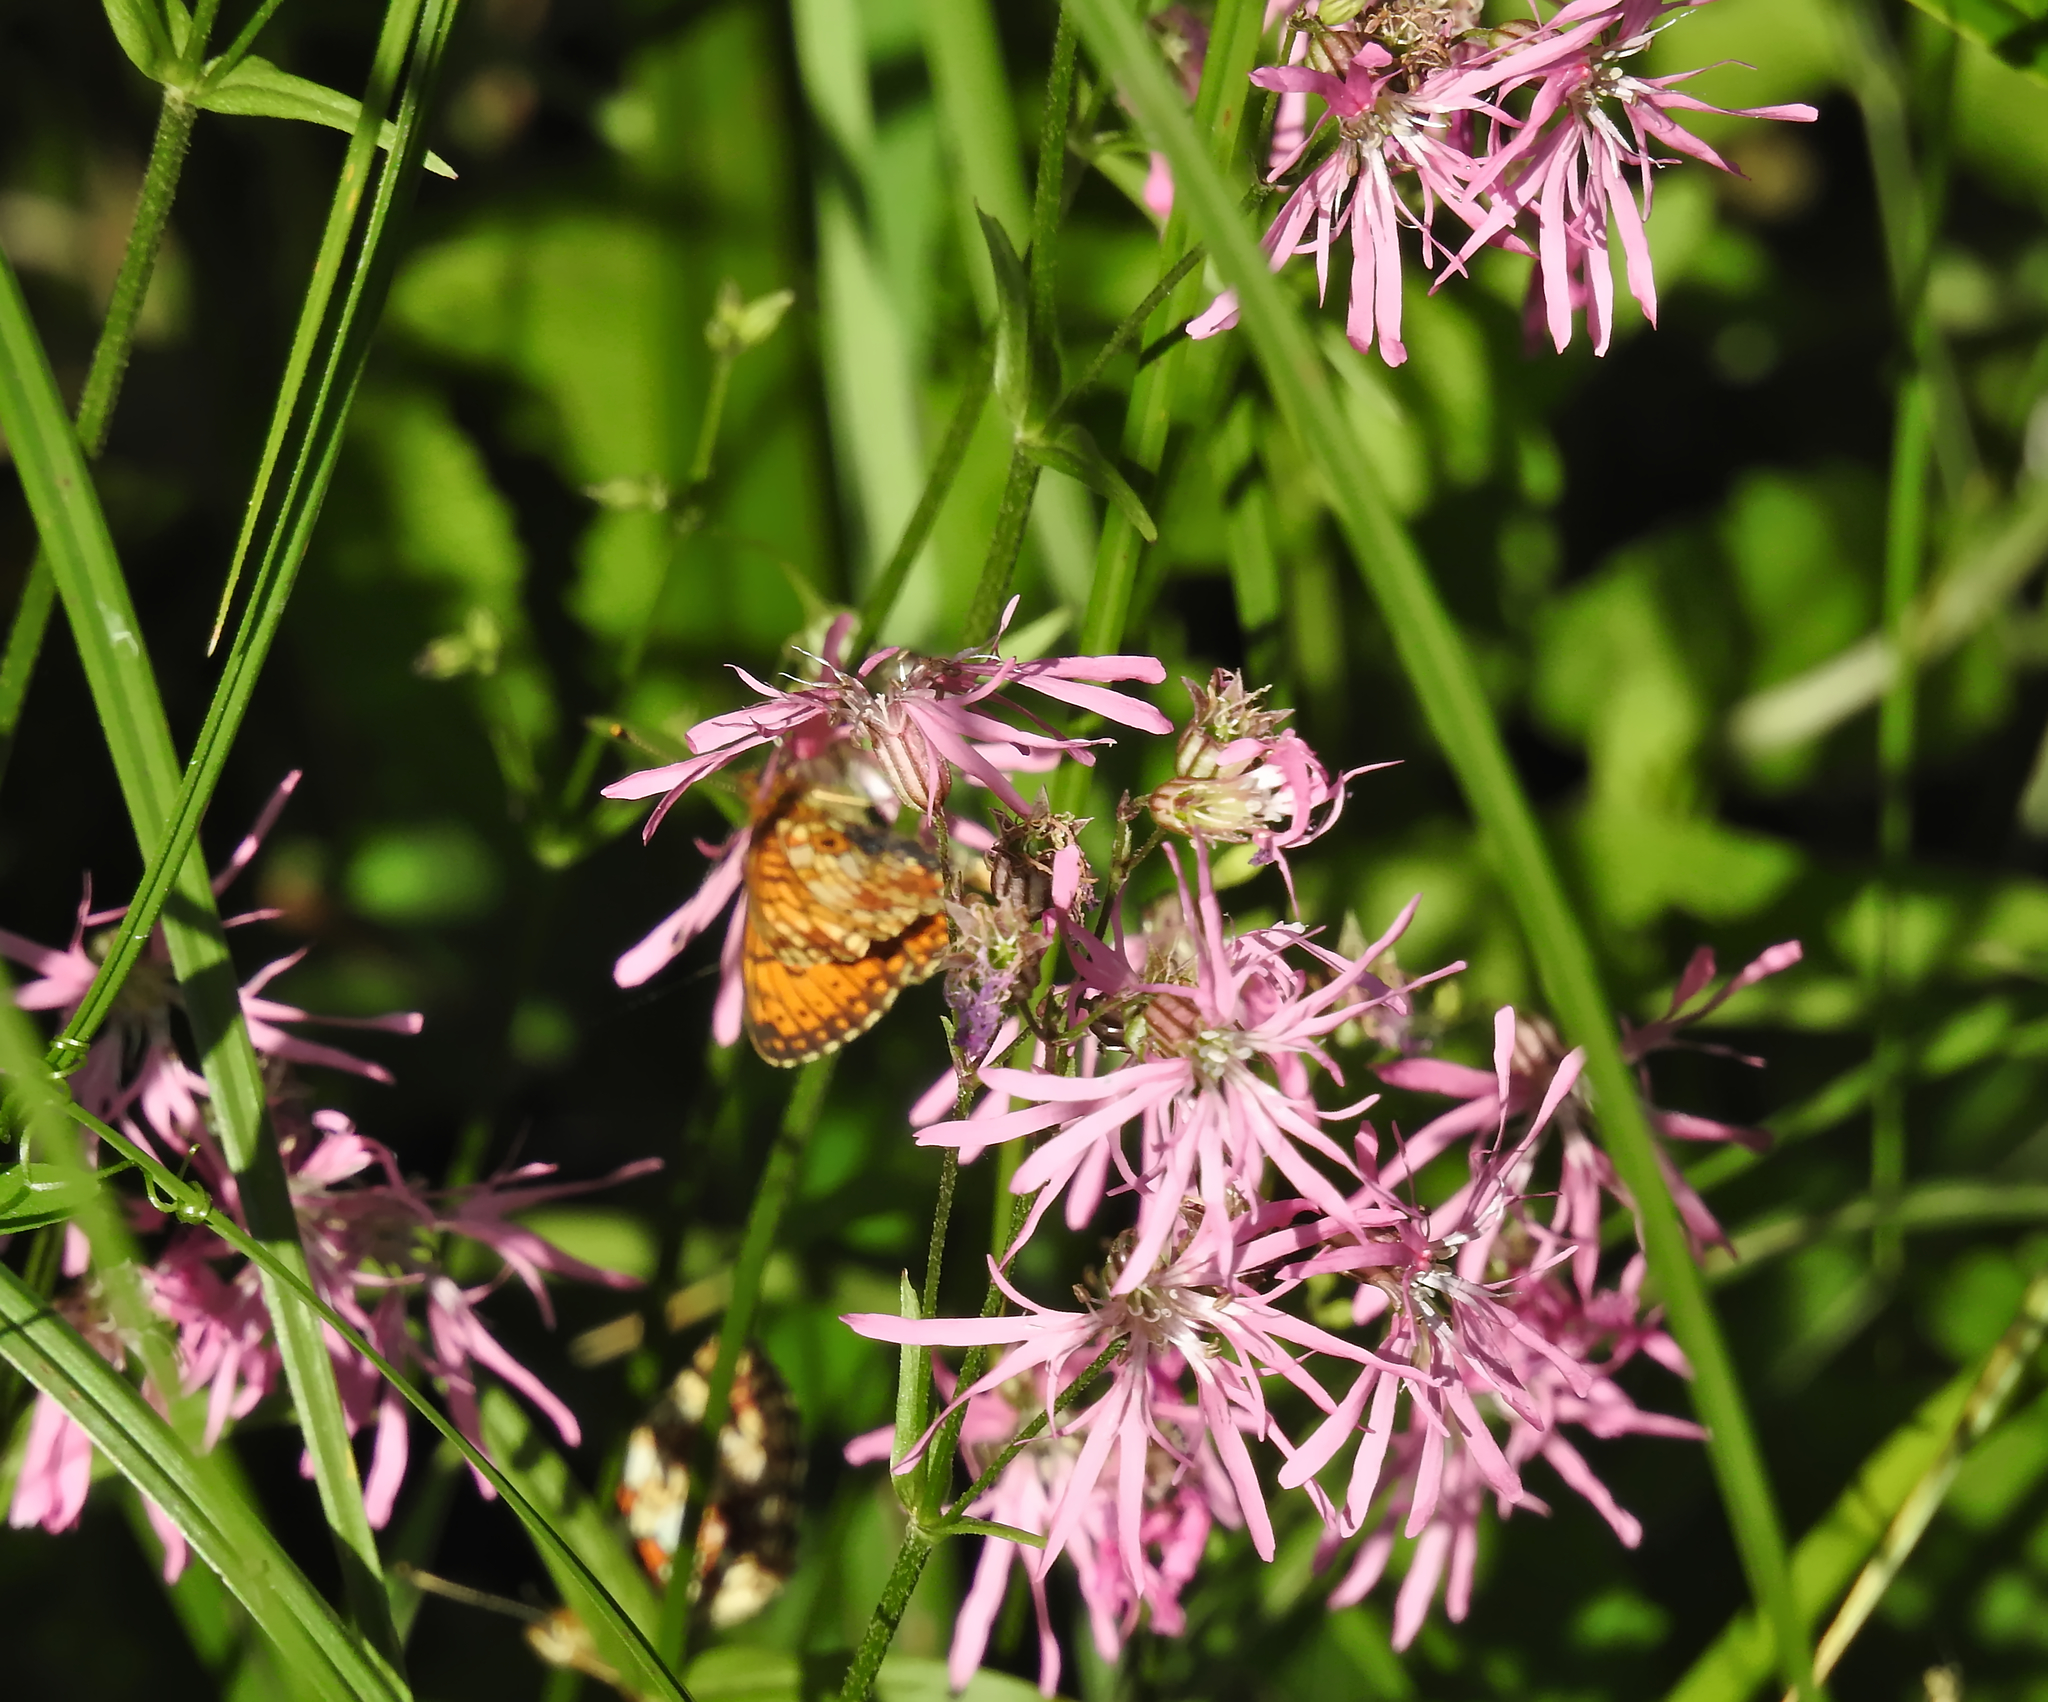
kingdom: Plantae
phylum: Tracheophyta
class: Magnoliopsida
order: Caryophyllales
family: Caryophyllaceae
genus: Silene
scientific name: Silene flos-cuculi
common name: Ragged-robin
